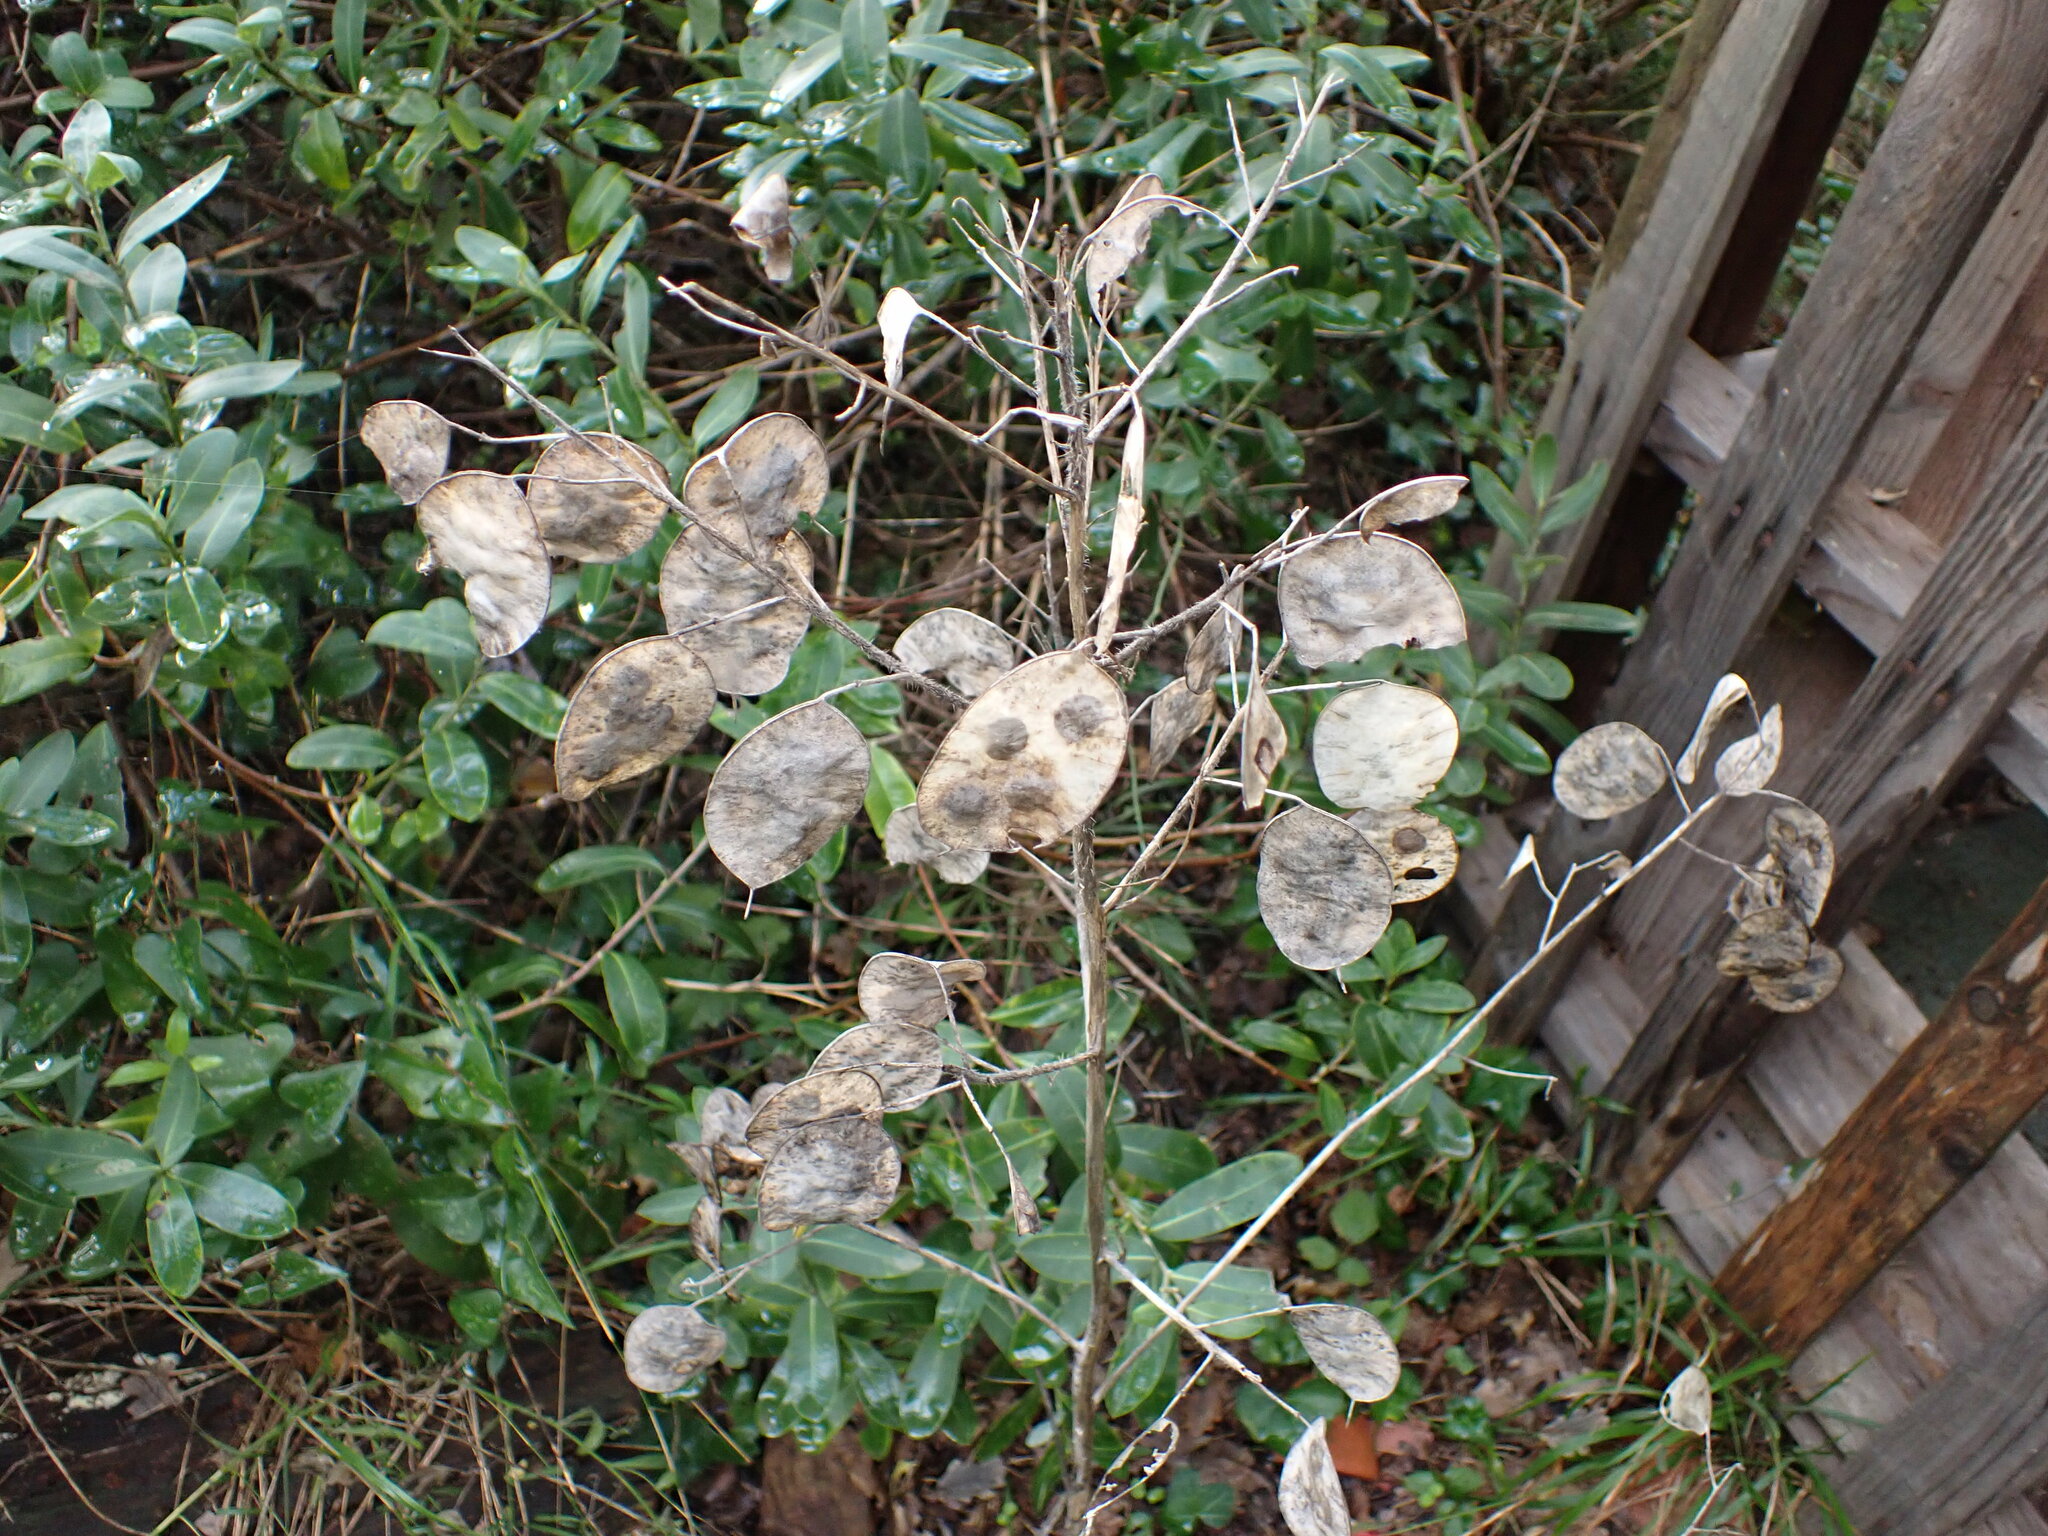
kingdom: Plantae
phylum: Tracheophyta
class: Magnoliopsida
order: Brassicales
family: Brassicaceae
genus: Lunaria
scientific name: Lunaria annua
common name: Honesty
